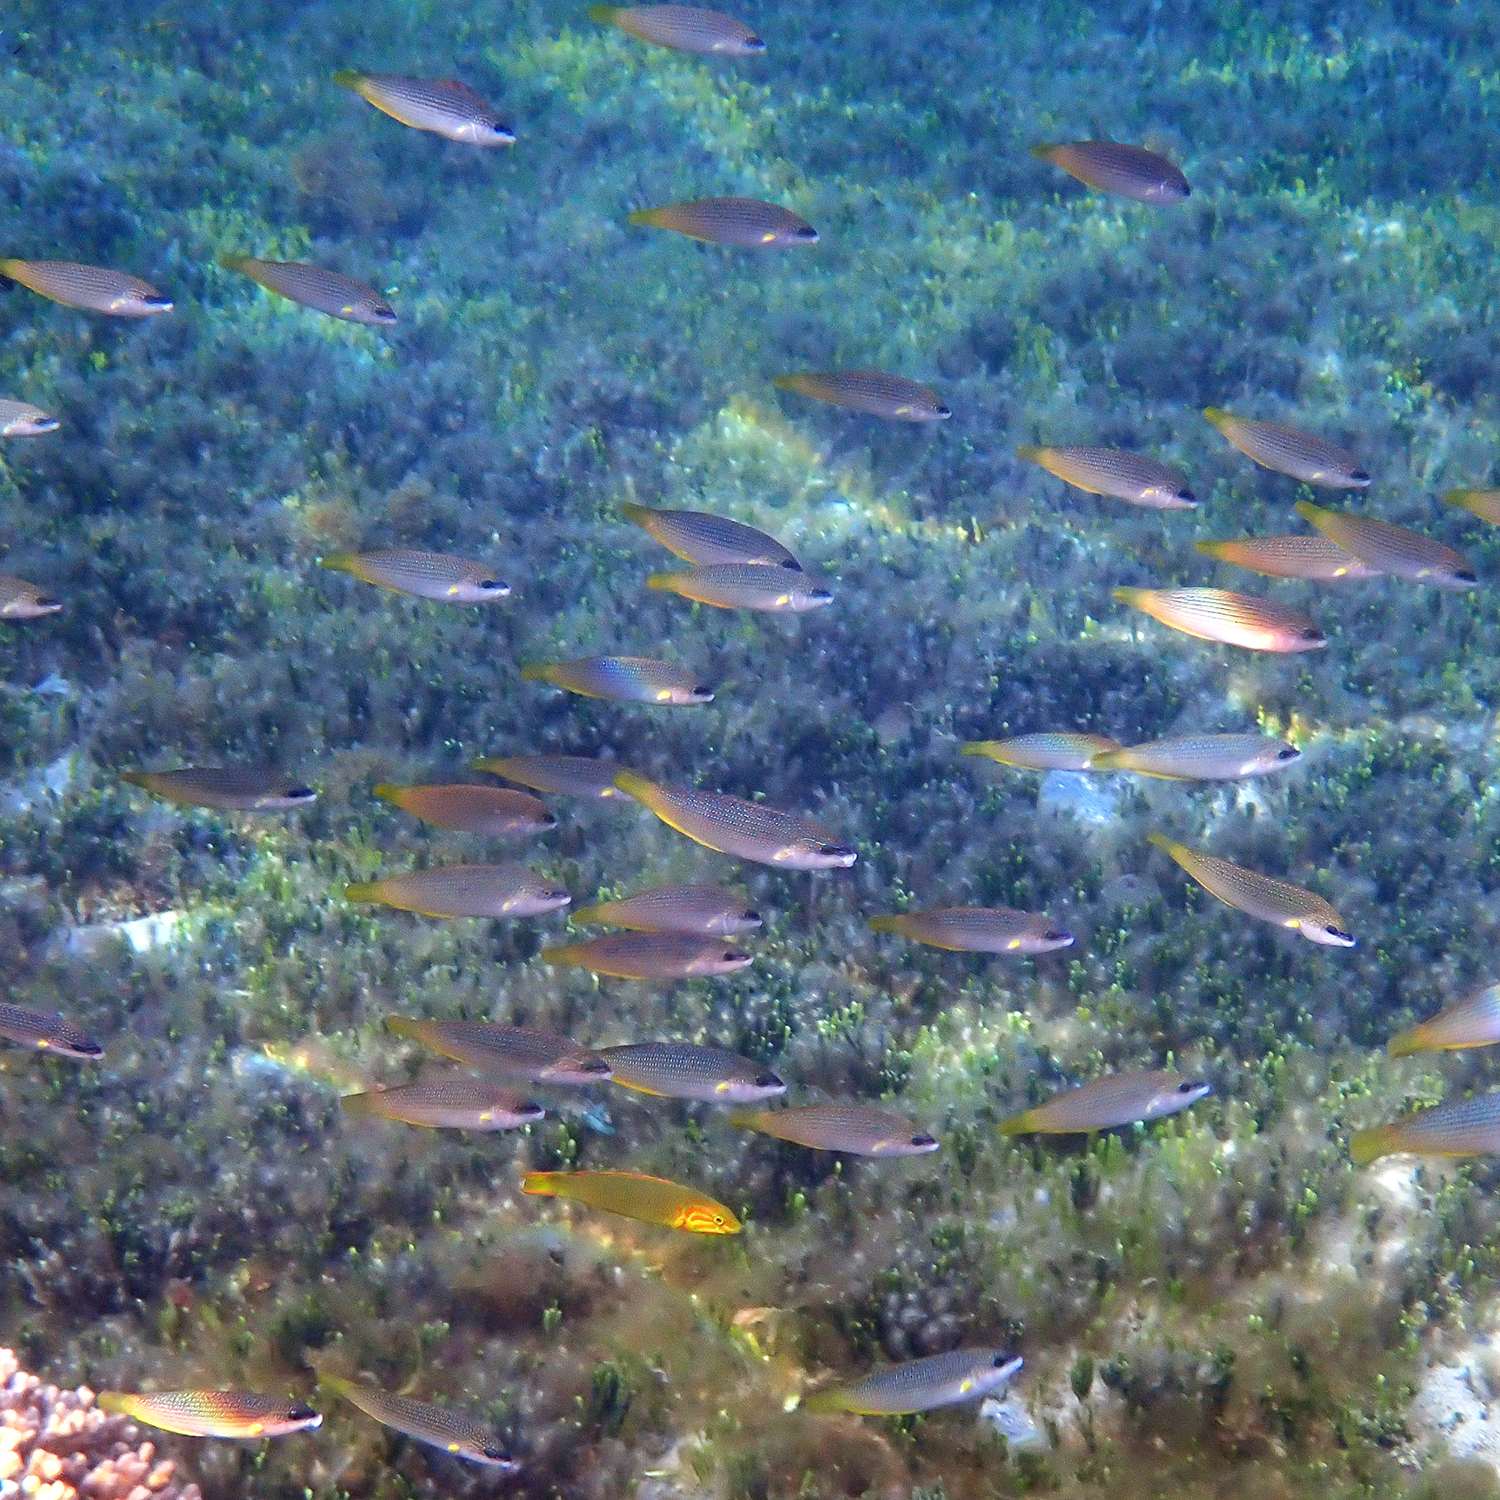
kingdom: Animalia
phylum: Chordata
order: Perciformes
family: Labridae
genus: Anampses
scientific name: Anampses elegans
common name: Elegant wrasse
